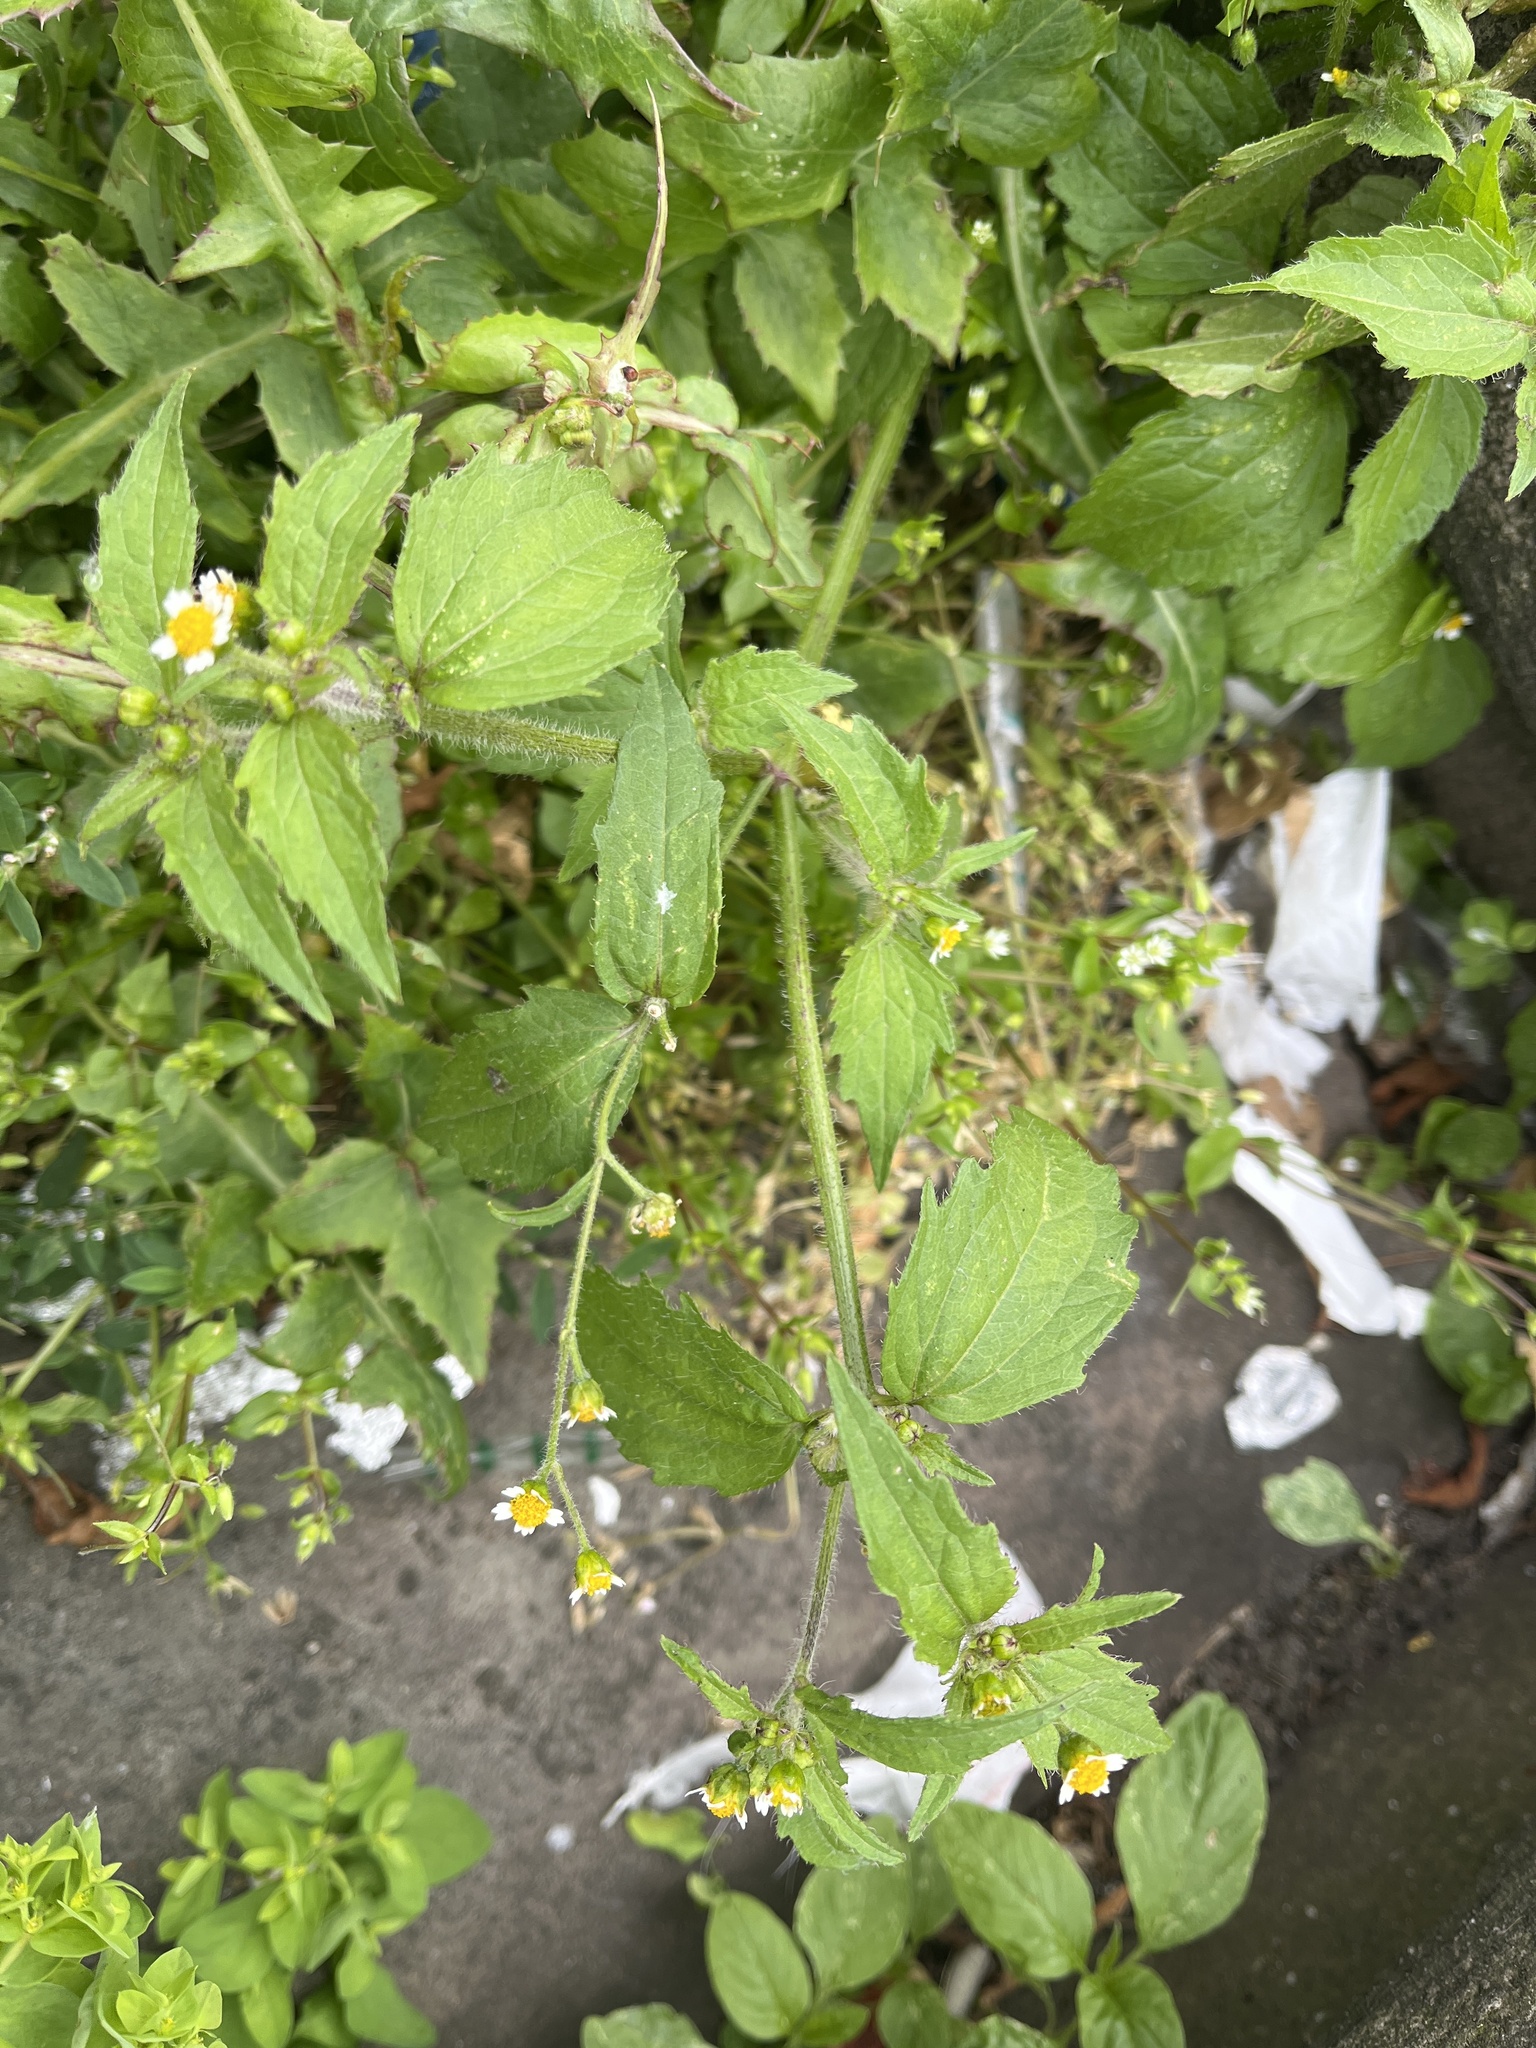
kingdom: Plantae
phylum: Tracheophyta
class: Magnoliopsida
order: Asterales
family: Asteraceae
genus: Galinsoga
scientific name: Galinsoga quadriradiata
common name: Shaggy soldier
